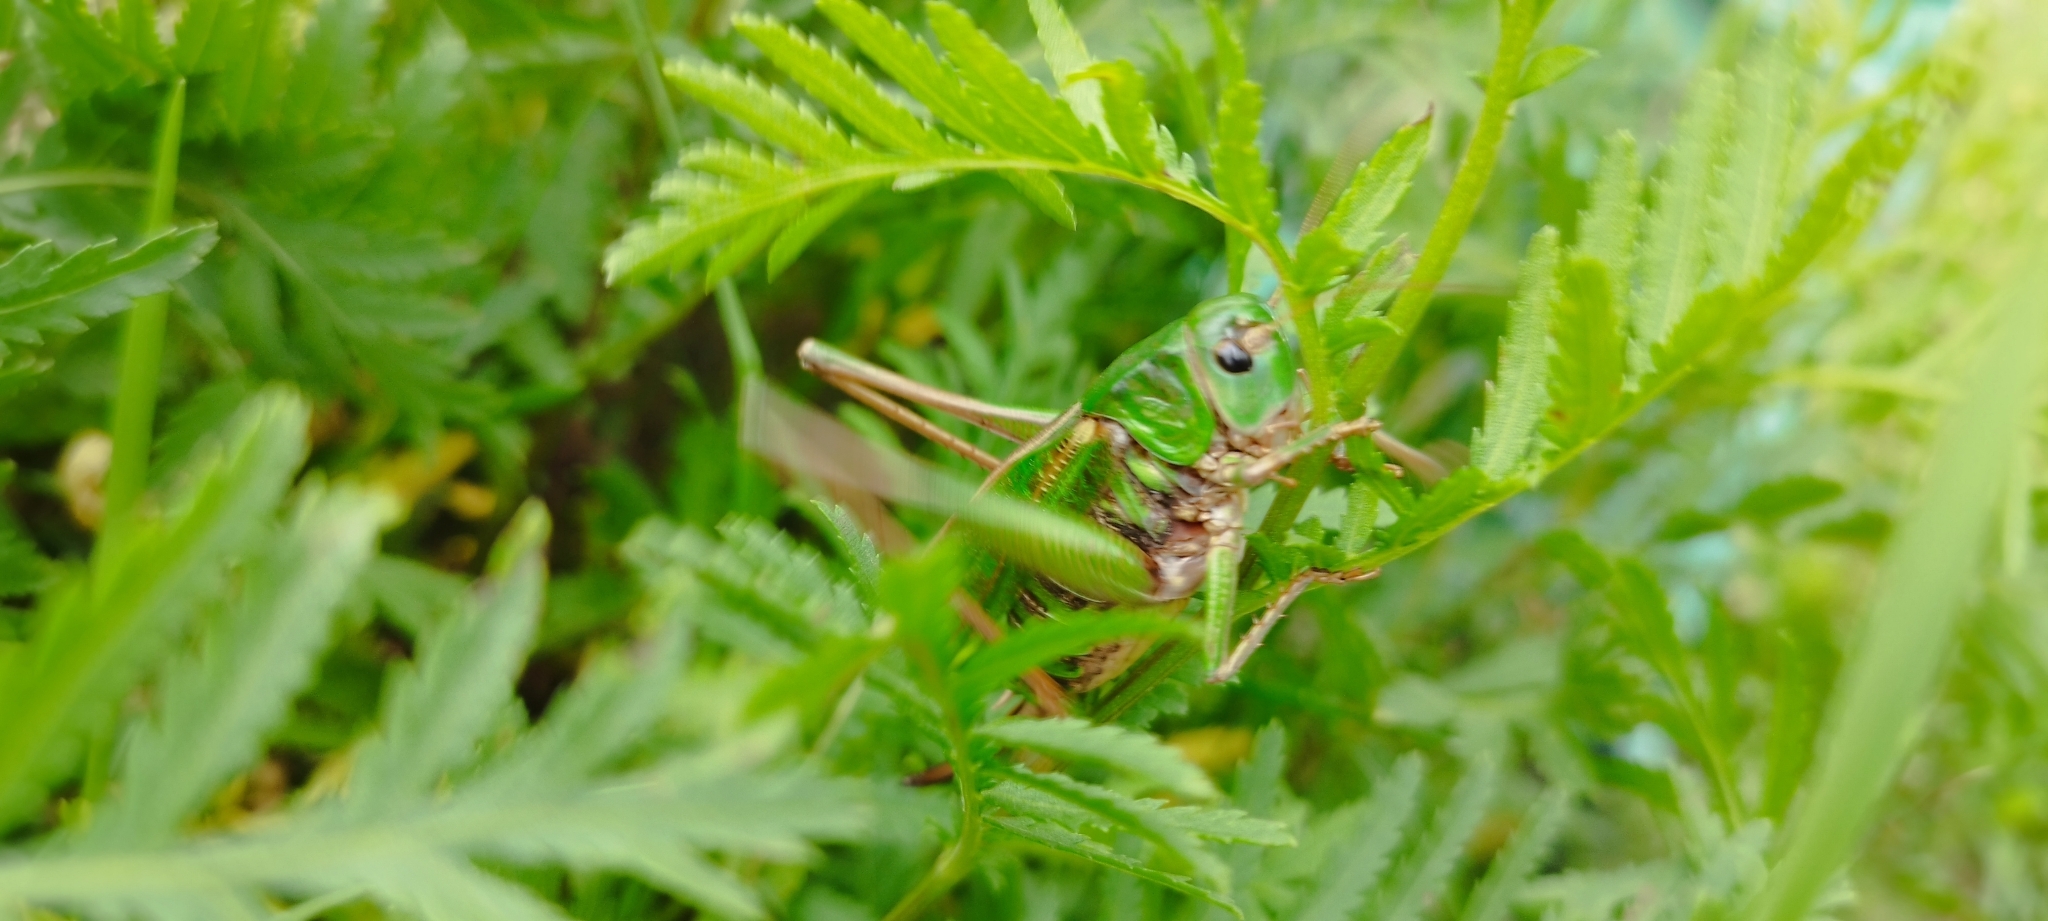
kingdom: Animalia
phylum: Arthropoda
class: Insecta
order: Orthoptera
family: Tettigoniidae
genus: Decticus
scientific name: Decticus verrucivorus
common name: Wart-biter
